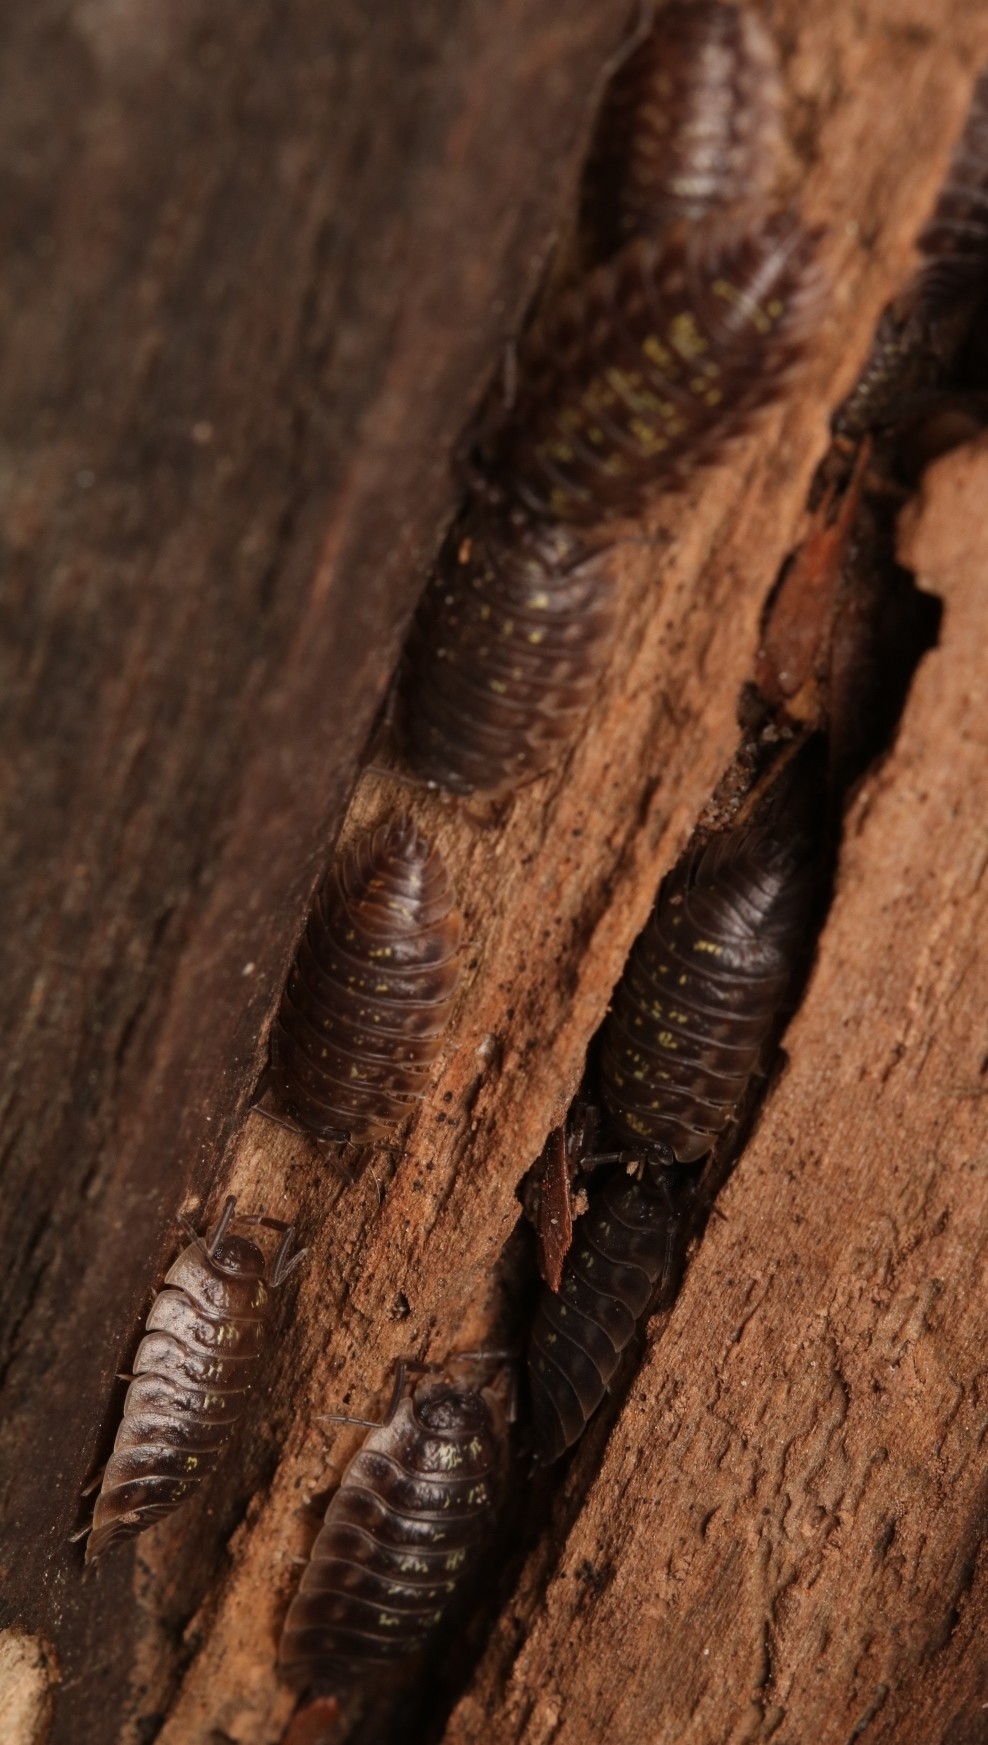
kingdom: Animalia
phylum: Arthropoda
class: Malacostraca
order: Isopoda
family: Oniscidae
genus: Oniscus
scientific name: Oniscus asellus
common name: Common shiny woodlouse
